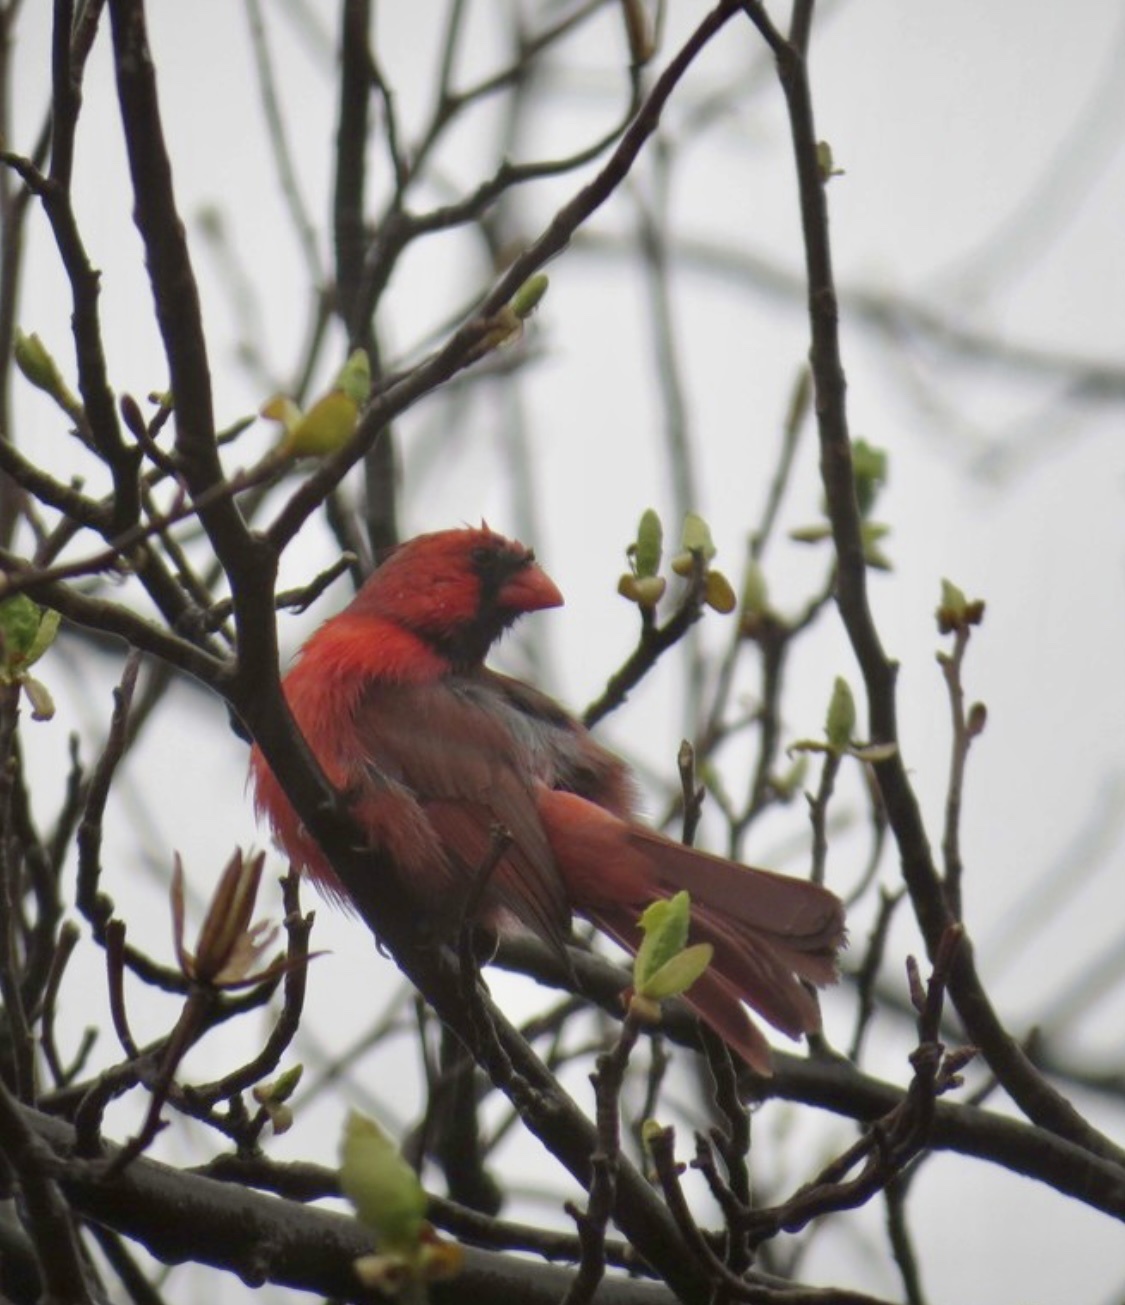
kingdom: Animalia
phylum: Chordata
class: Aves
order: Passeriformes
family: Cardinalidae
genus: Cardinalis
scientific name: Cardinalis cardinalis
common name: Northern cardinal
